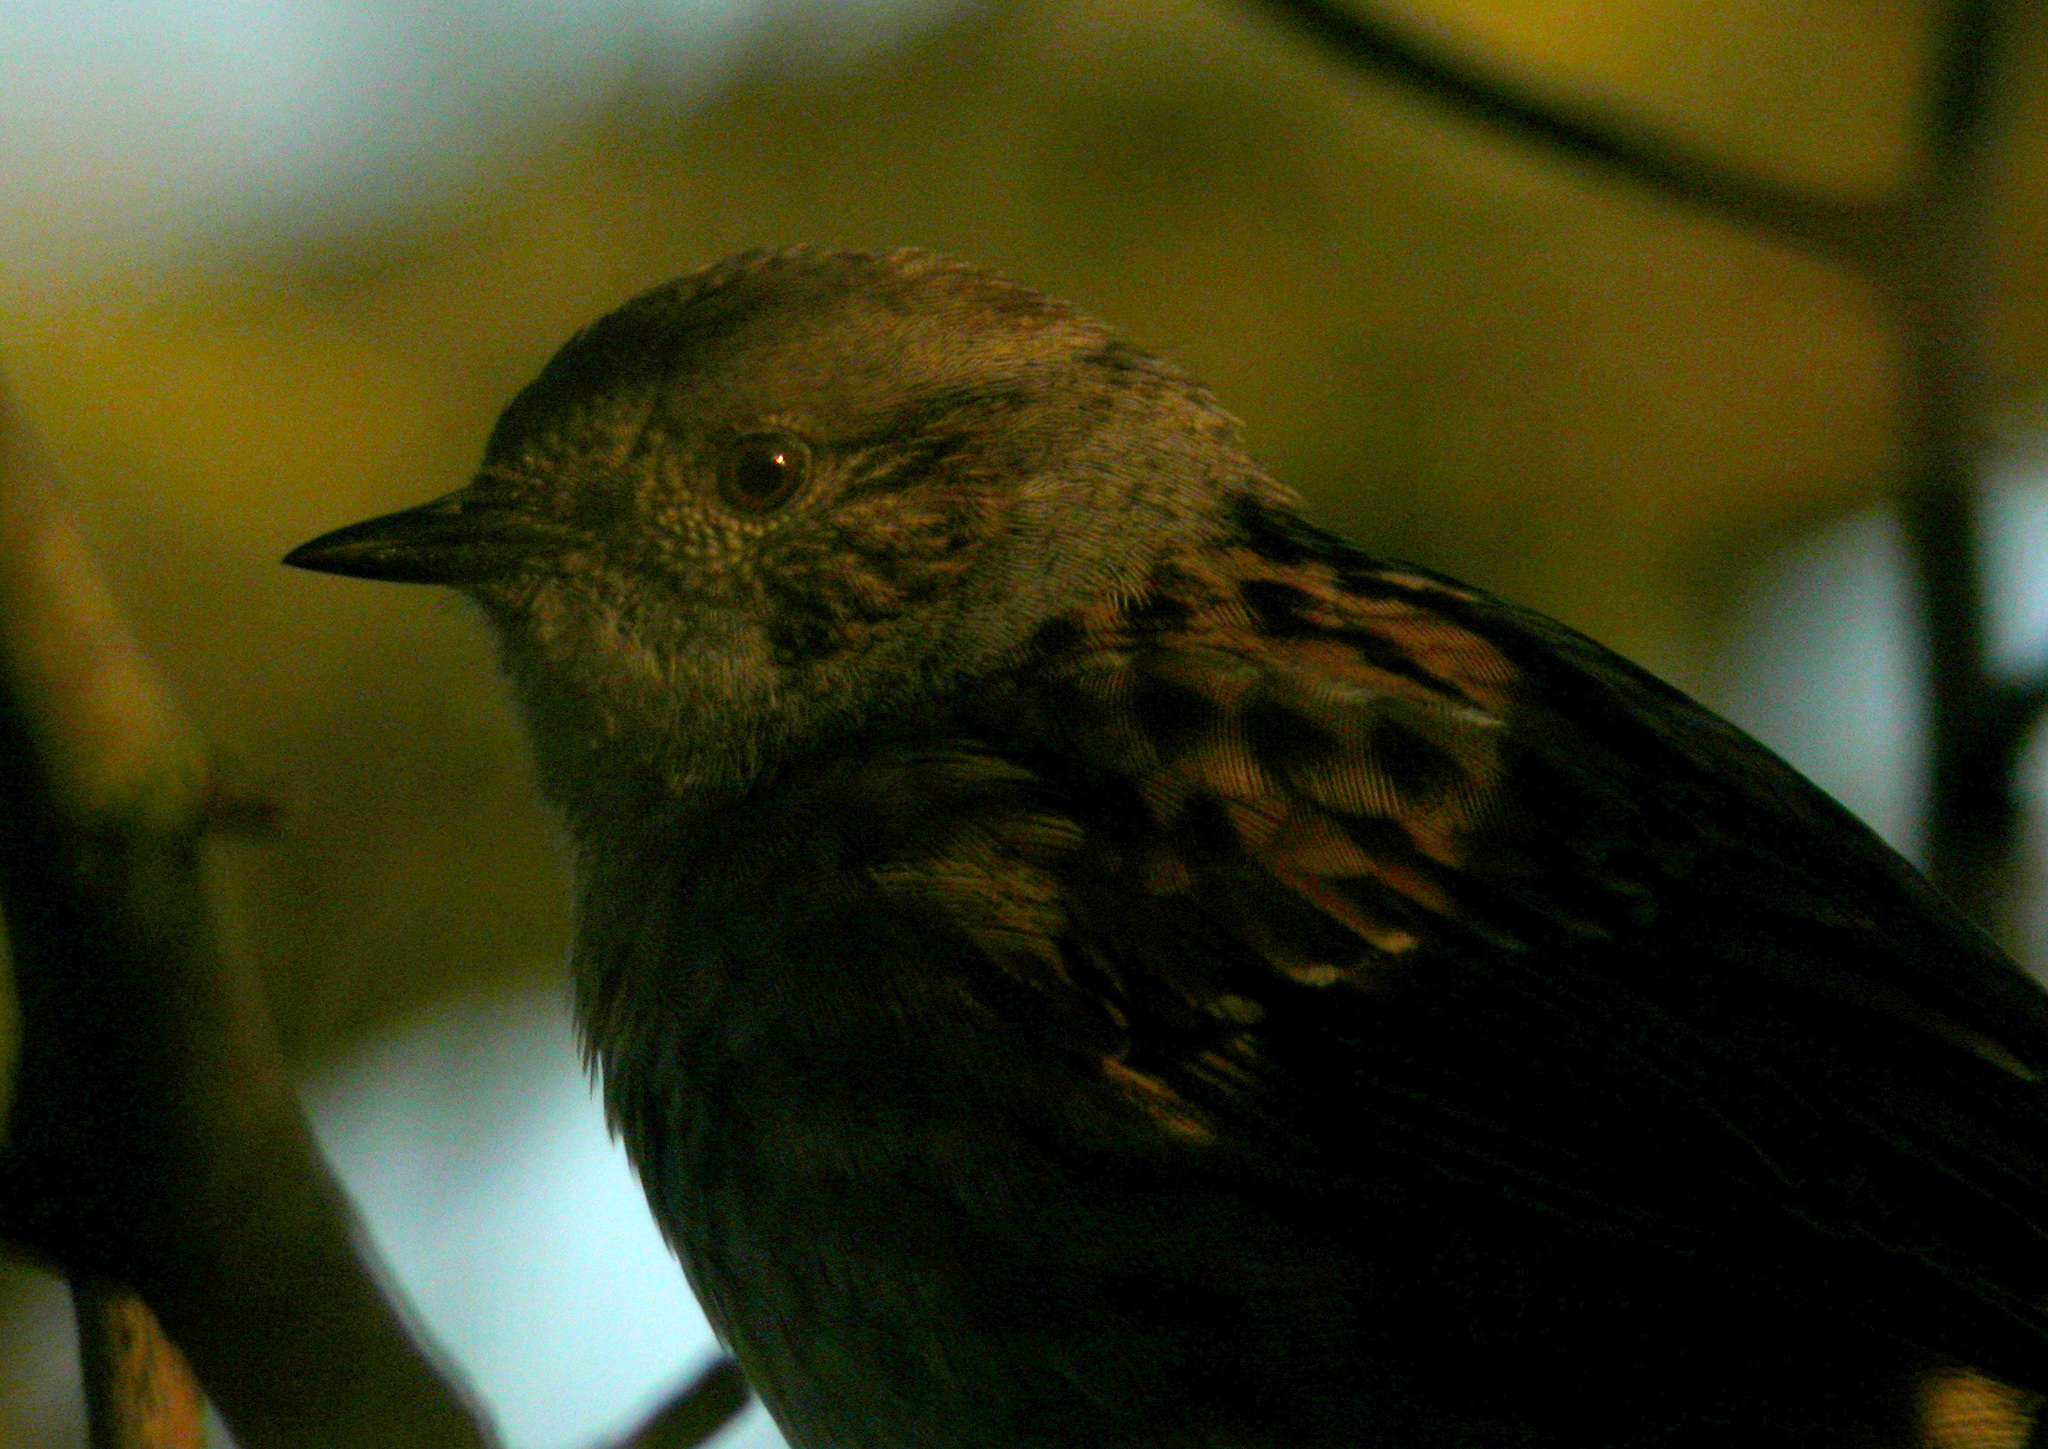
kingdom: Animalia
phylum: Chordata
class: Aves
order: Passeriformes
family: Prunellidae
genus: Prunella
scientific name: Prunella modularis
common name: Dunnock
